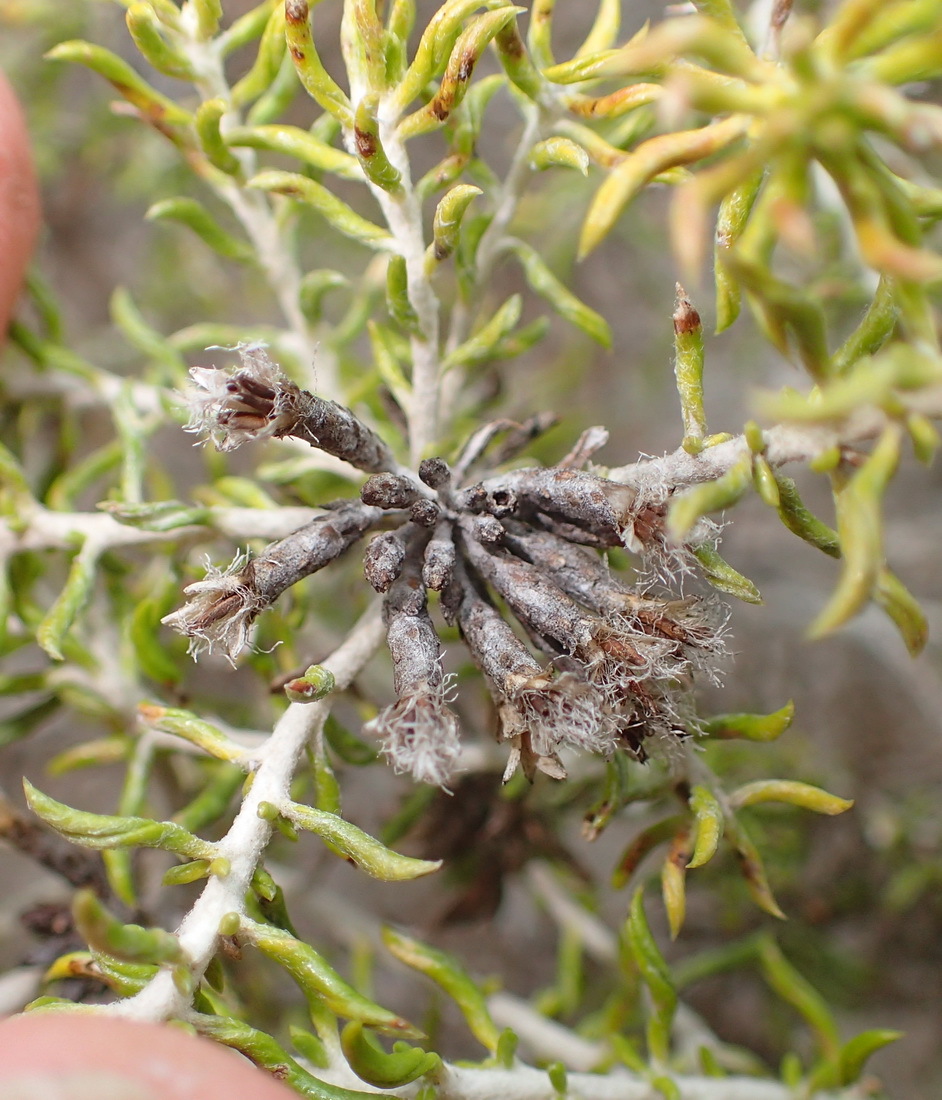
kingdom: Plantae
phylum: Tracheophyta
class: Magnoliopsida
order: Asterales
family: Asteraceae
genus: Metalasia
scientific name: Metalasia muricata
